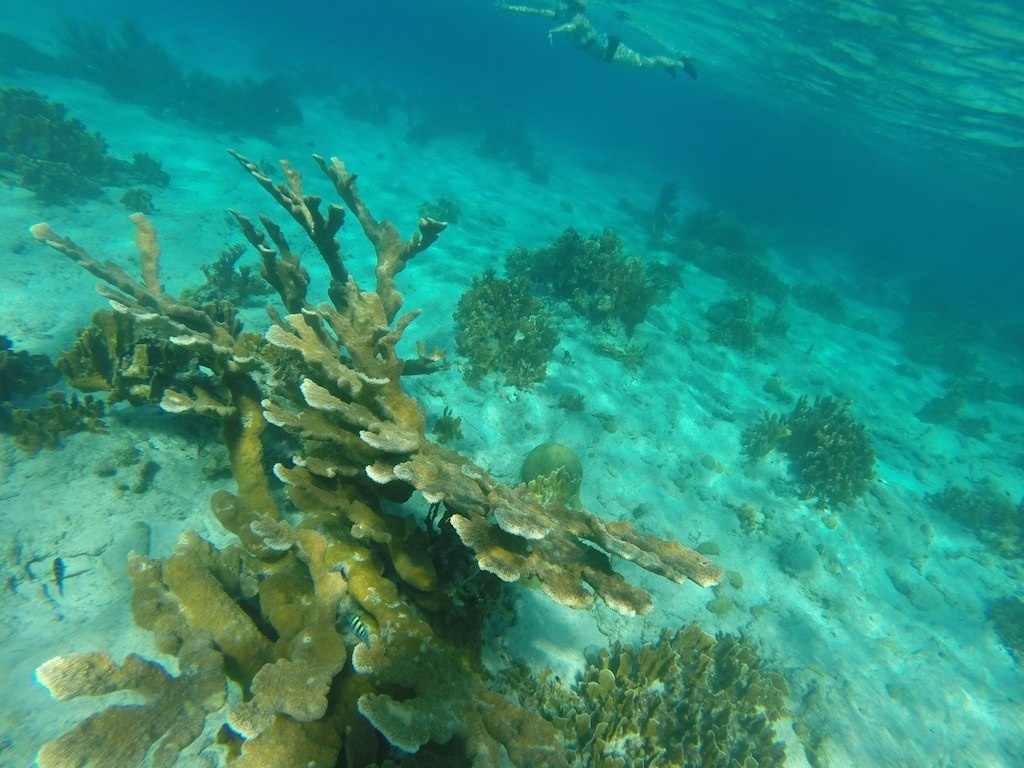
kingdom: Animalia
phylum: Cnidaria
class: Anthozoa
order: Scleractinia
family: Acroporidae
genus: Acropora
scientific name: Acropora palmata
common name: Elkhorn coral
